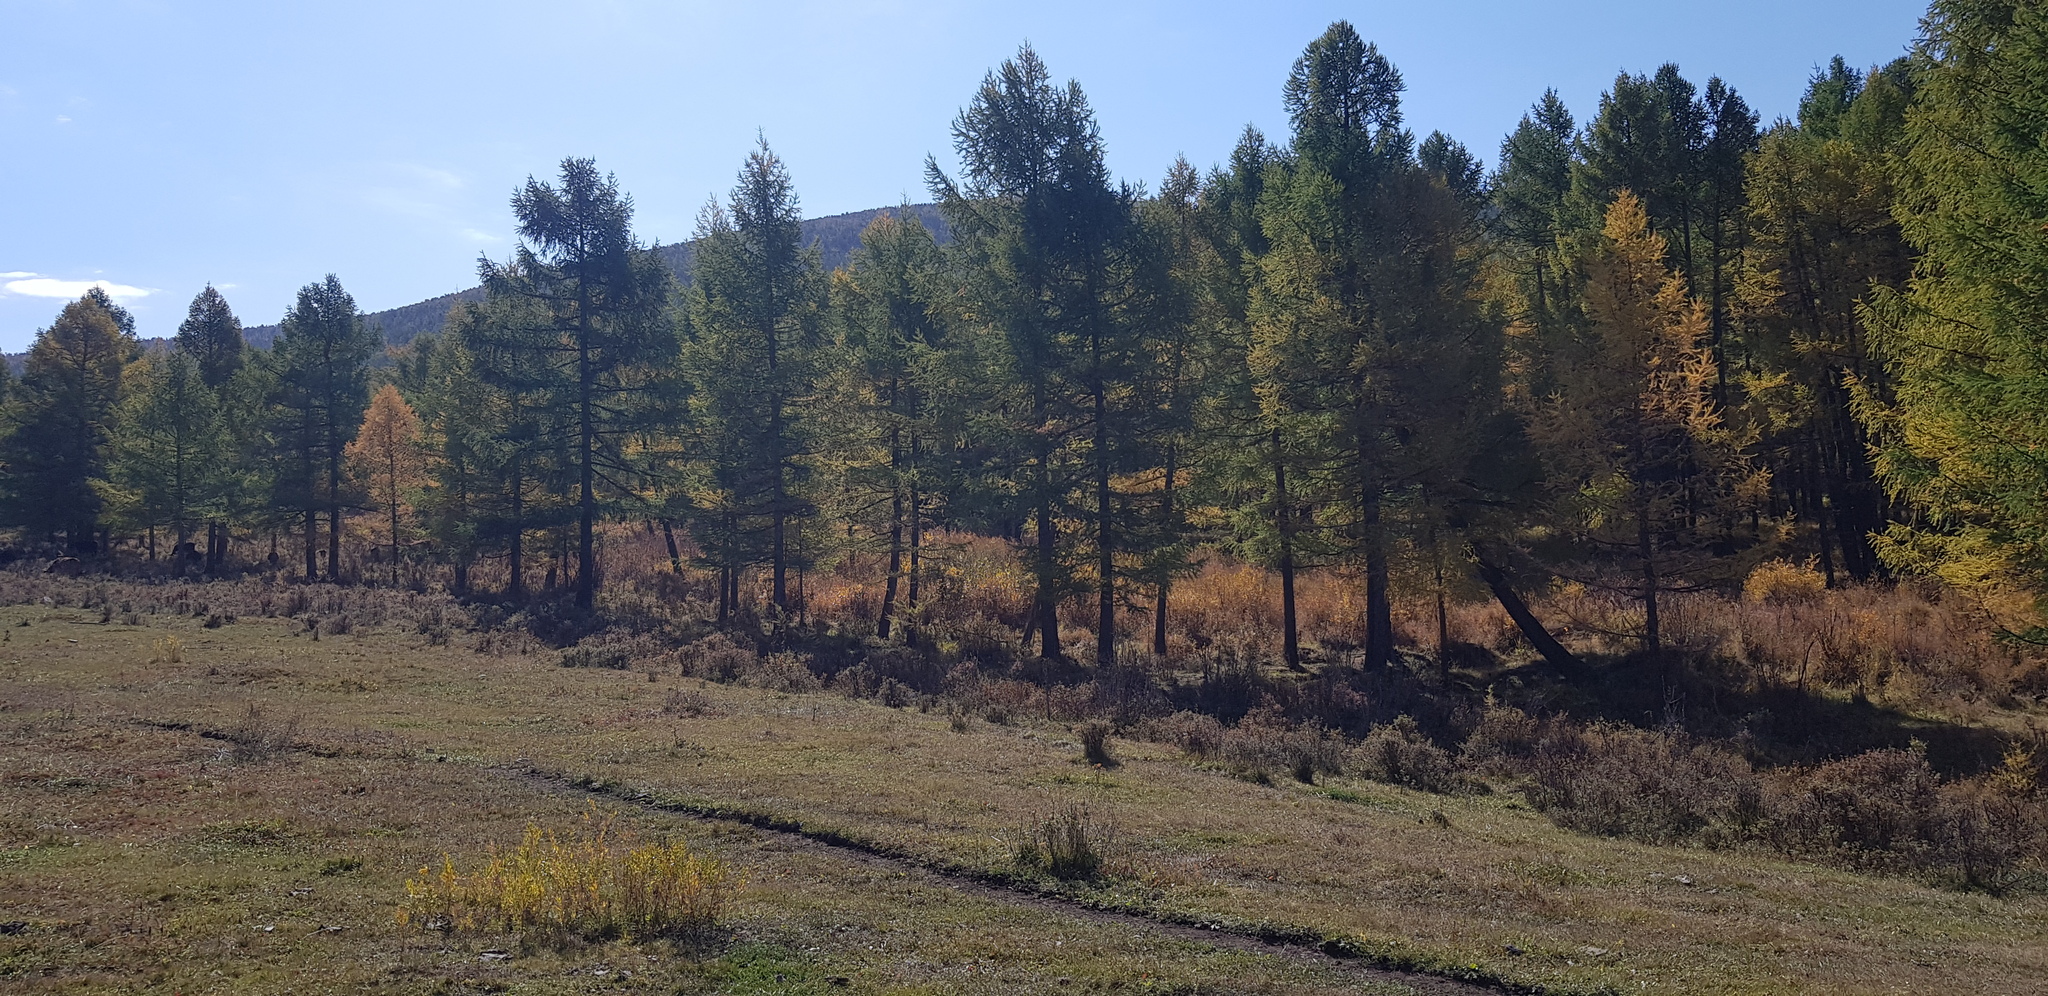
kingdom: Plantae
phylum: Tracheophyta
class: Pinopsida
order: Pinales
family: Pinaceae
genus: Larix
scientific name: Larix sibirica
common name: Siberian larch
